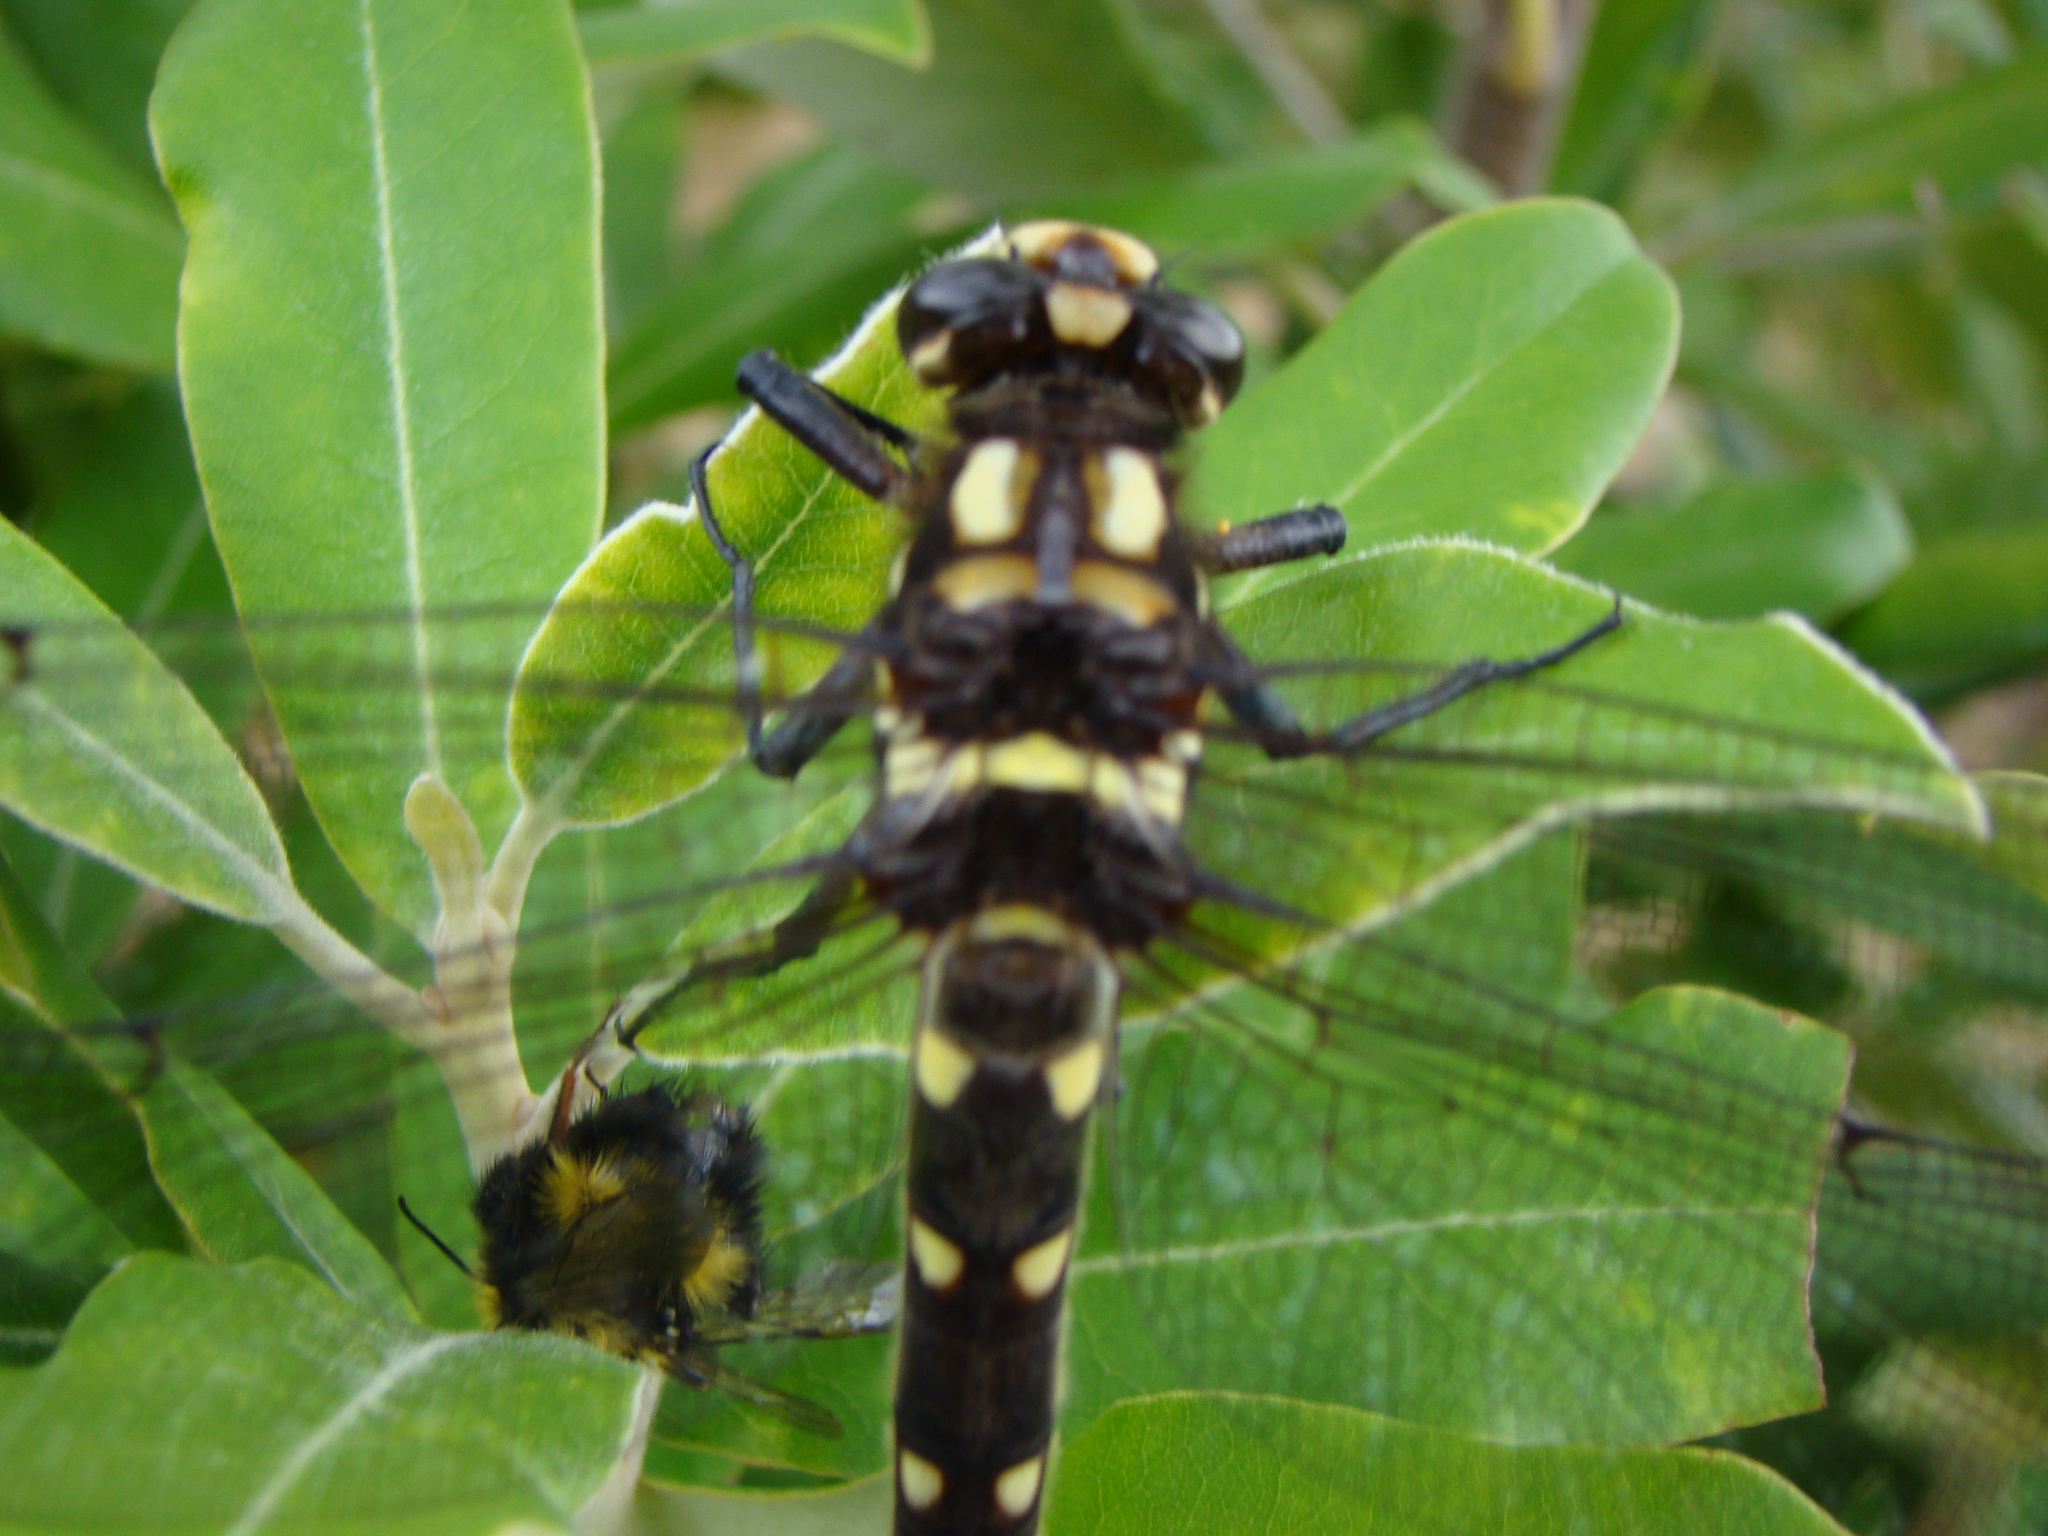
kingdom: Animalia
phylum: Arthropoda
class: Insecta
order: Odonata
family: Petaluridae
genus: Uropetala
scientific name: Uropetala carovei
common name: Bush giant dragonfly
